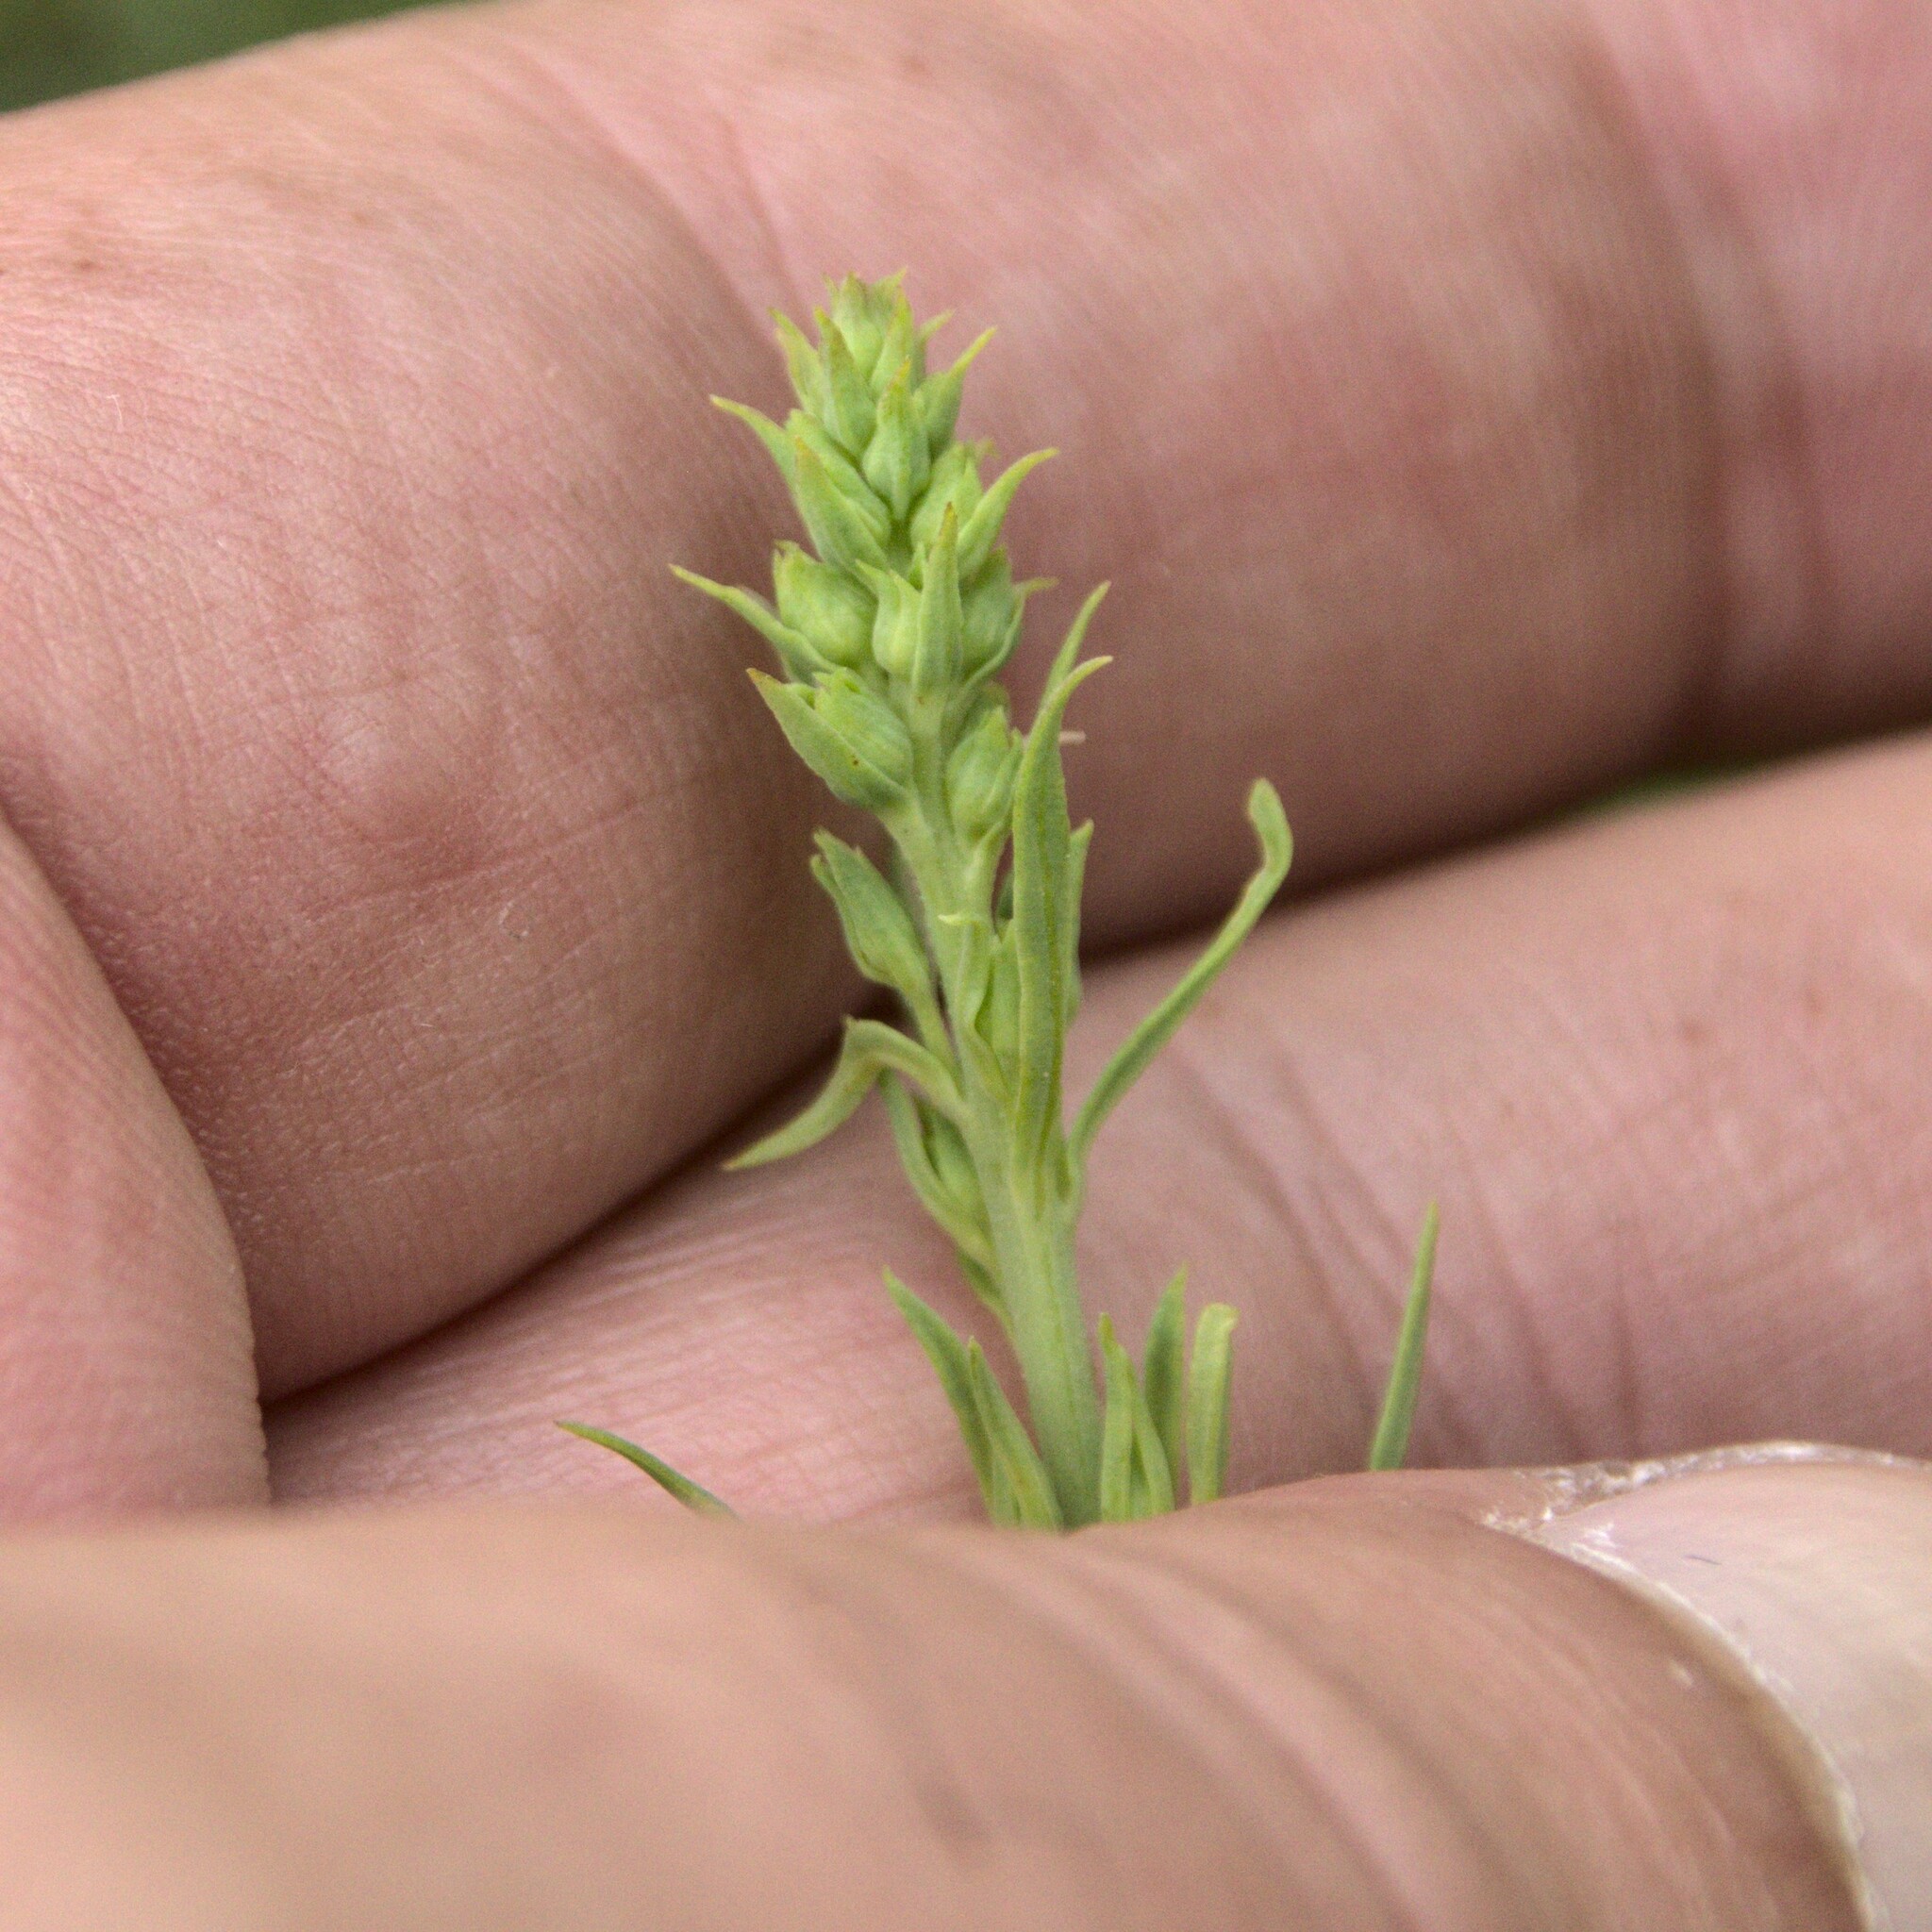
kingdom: Plantae
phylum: Tracheophyta
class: Magnoliopsida
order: Lamiales
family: Plantaginaceae
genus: Linaria
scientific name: Linaria vulgaris
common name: Butter and eggs
